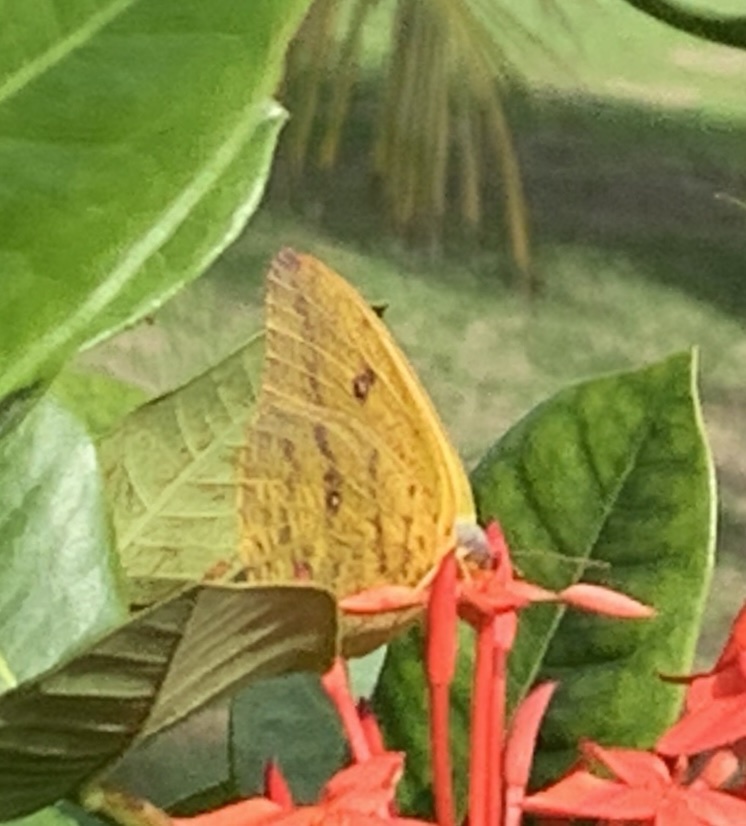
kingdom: Animalia
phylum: Arthropoda
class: Insecta
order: Lepidoptera
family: Pieridae
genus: Phoebis
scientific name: Phoebis agarithe
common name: Large orange sulphur
